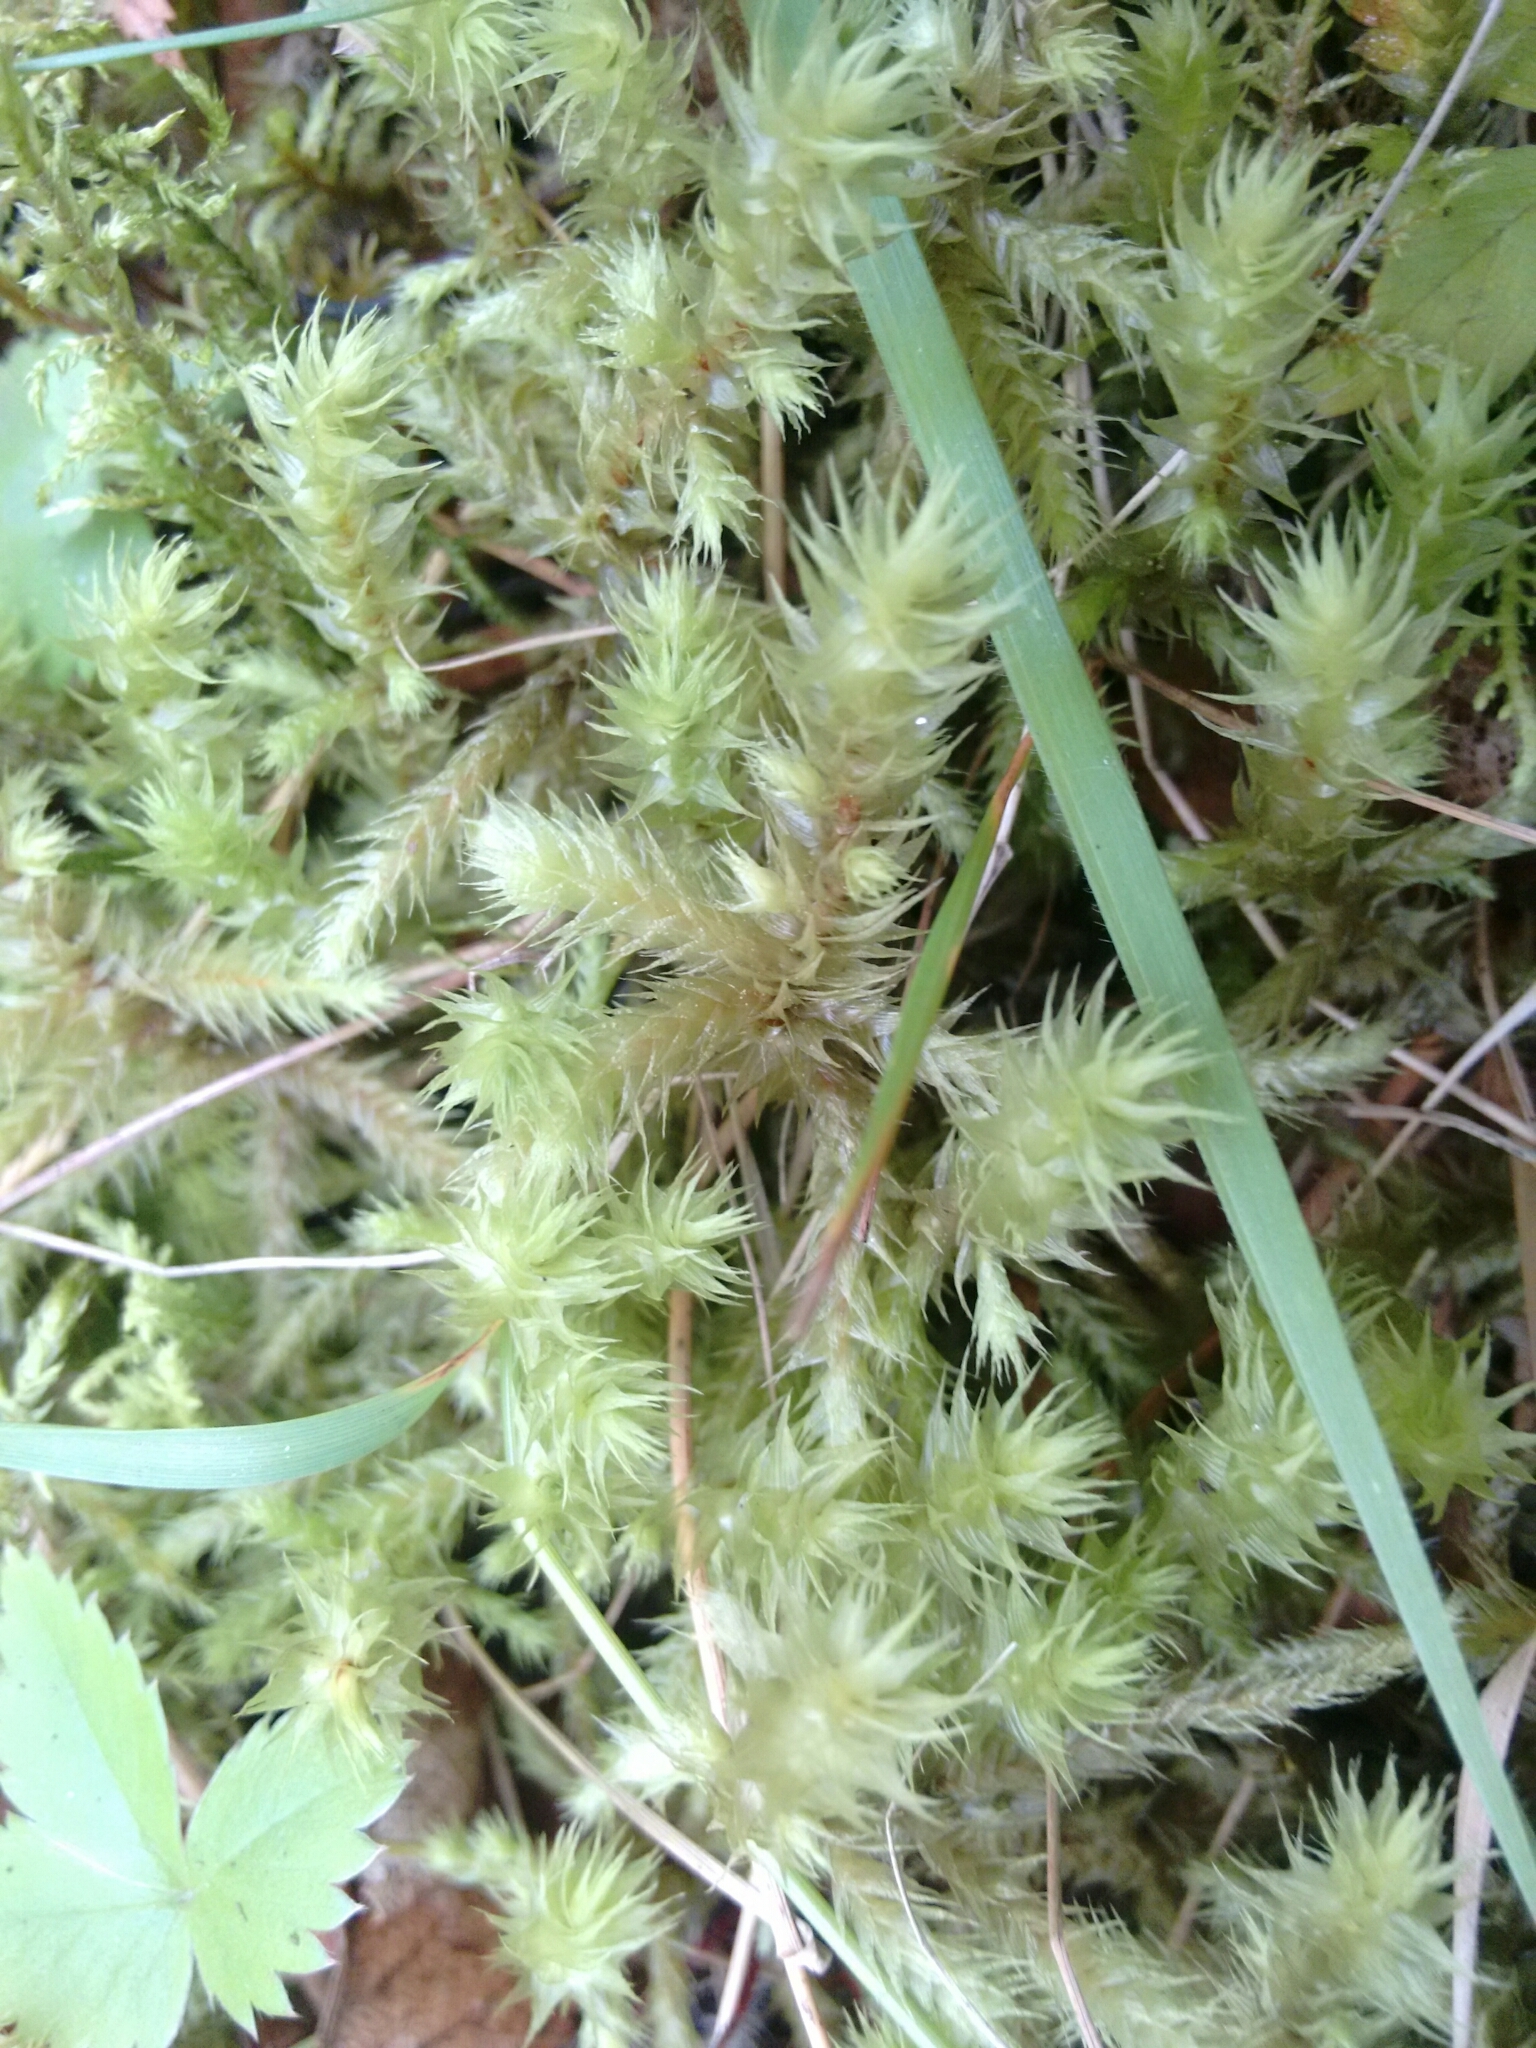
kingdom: Plantae
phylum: Bryophyta
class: Bryopsida
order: Hypnales
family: Hylocomiaceae
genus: Hylocomiadelphus
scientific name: Hylocomiadelphus triquetrus
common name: Rough goose neck moss
